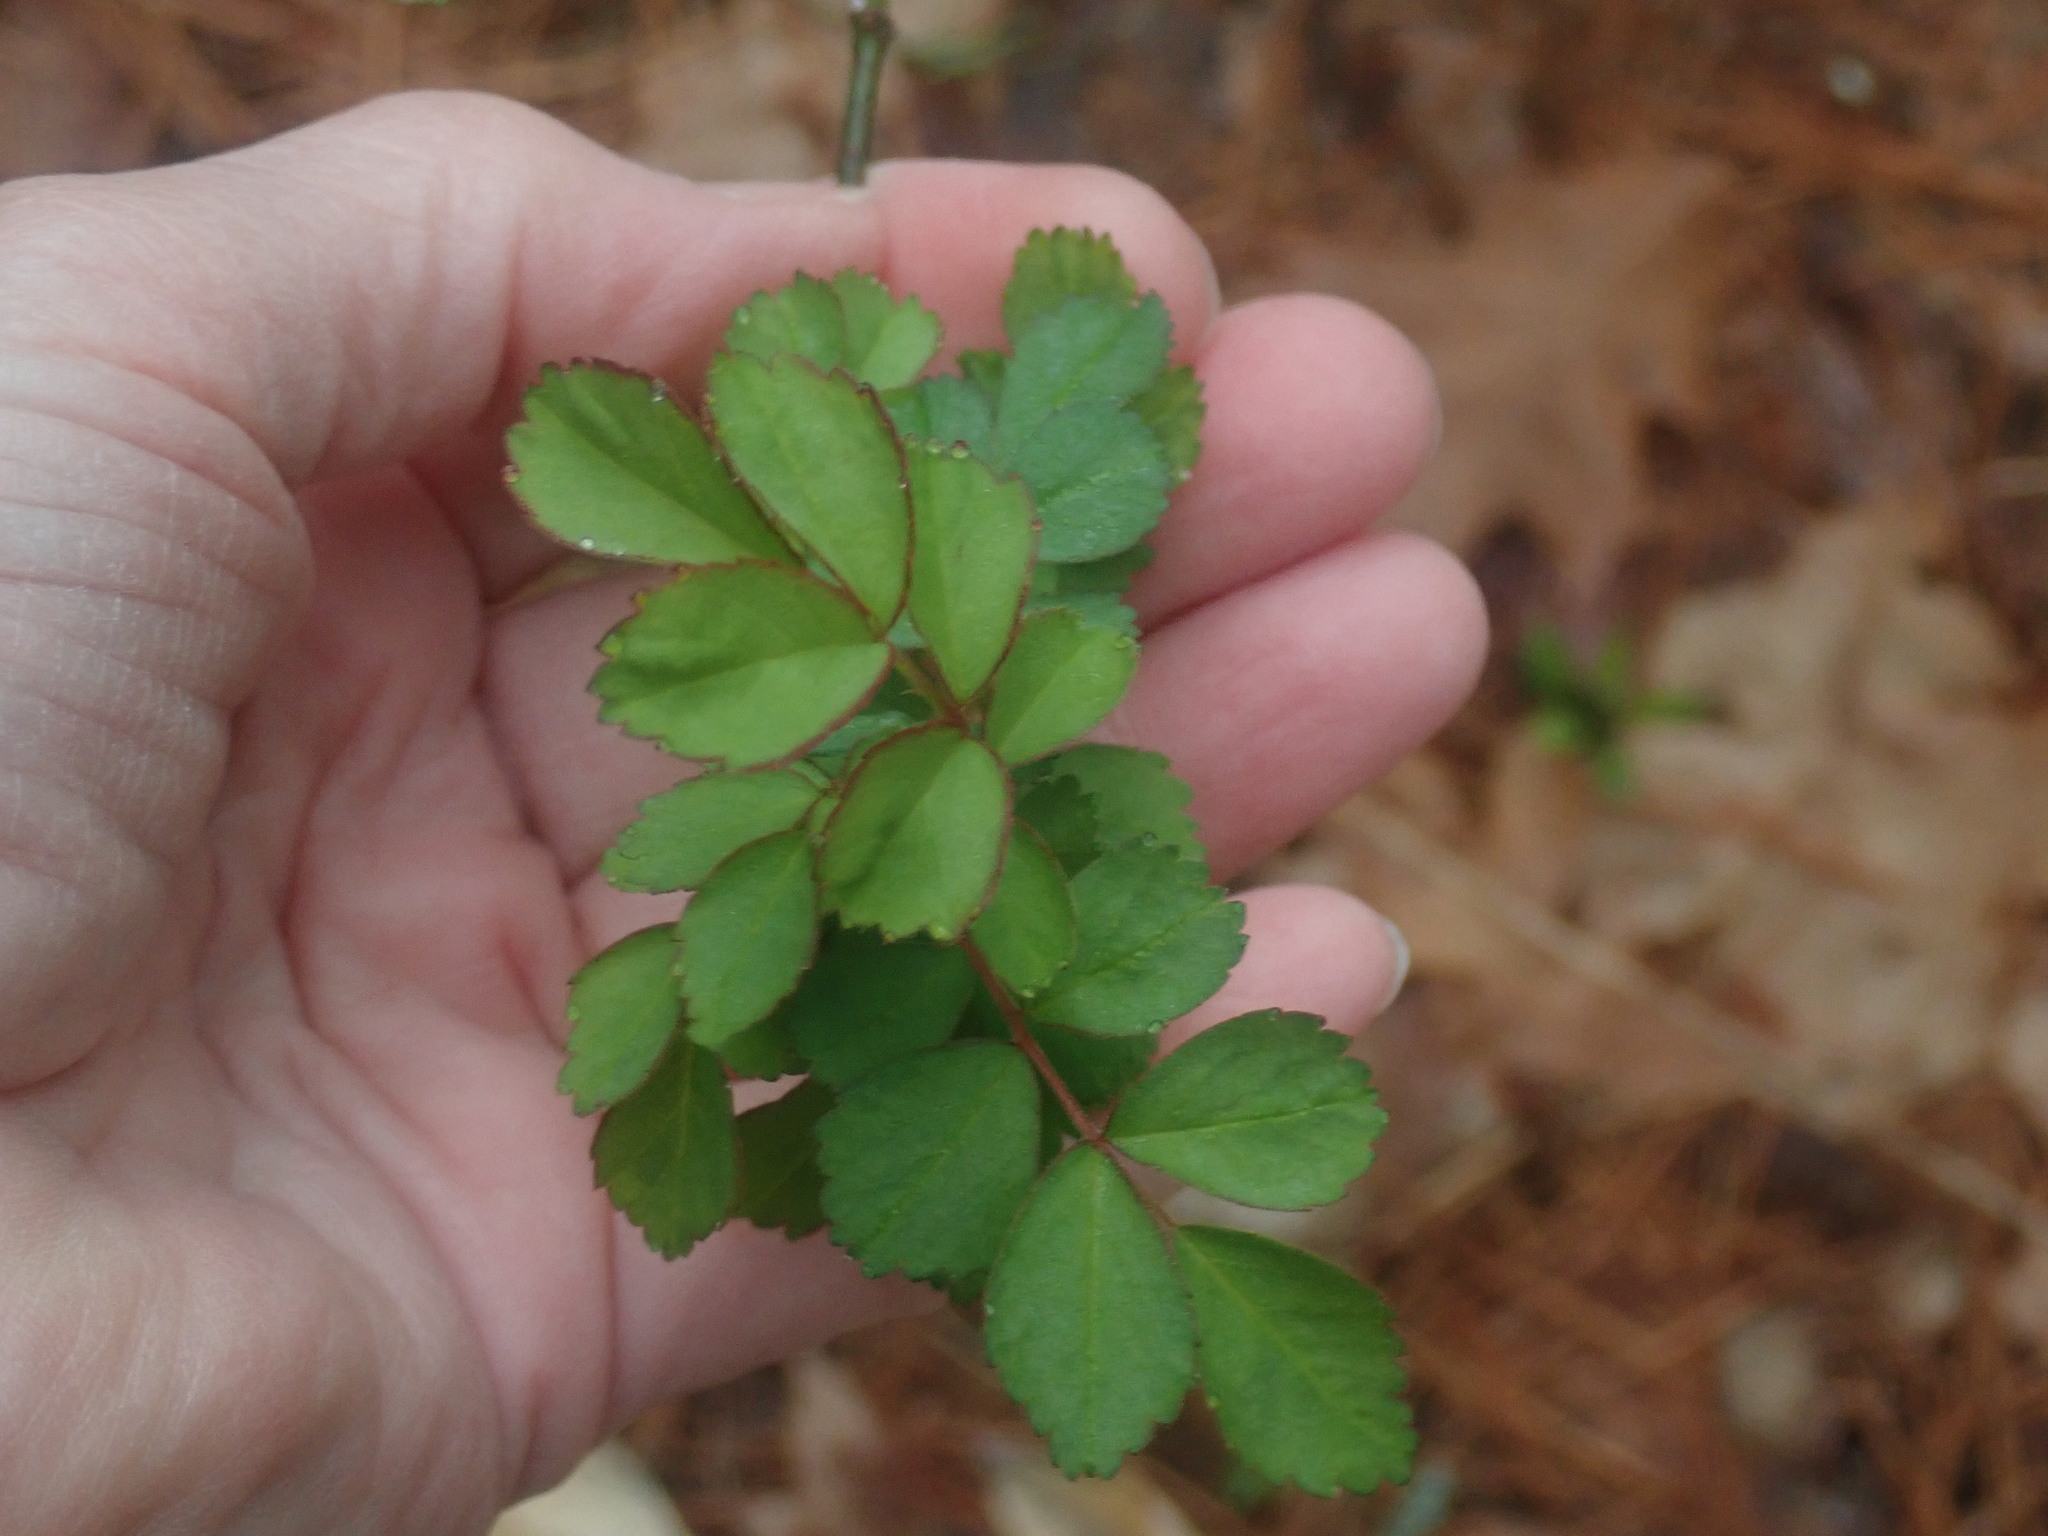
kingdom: Plantae
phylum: Tracheophyta
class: Magnoliopsida
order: Rosales
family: Rosaceae
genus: Rosa
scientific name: Rosa multiflora
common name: Multiflora rose
